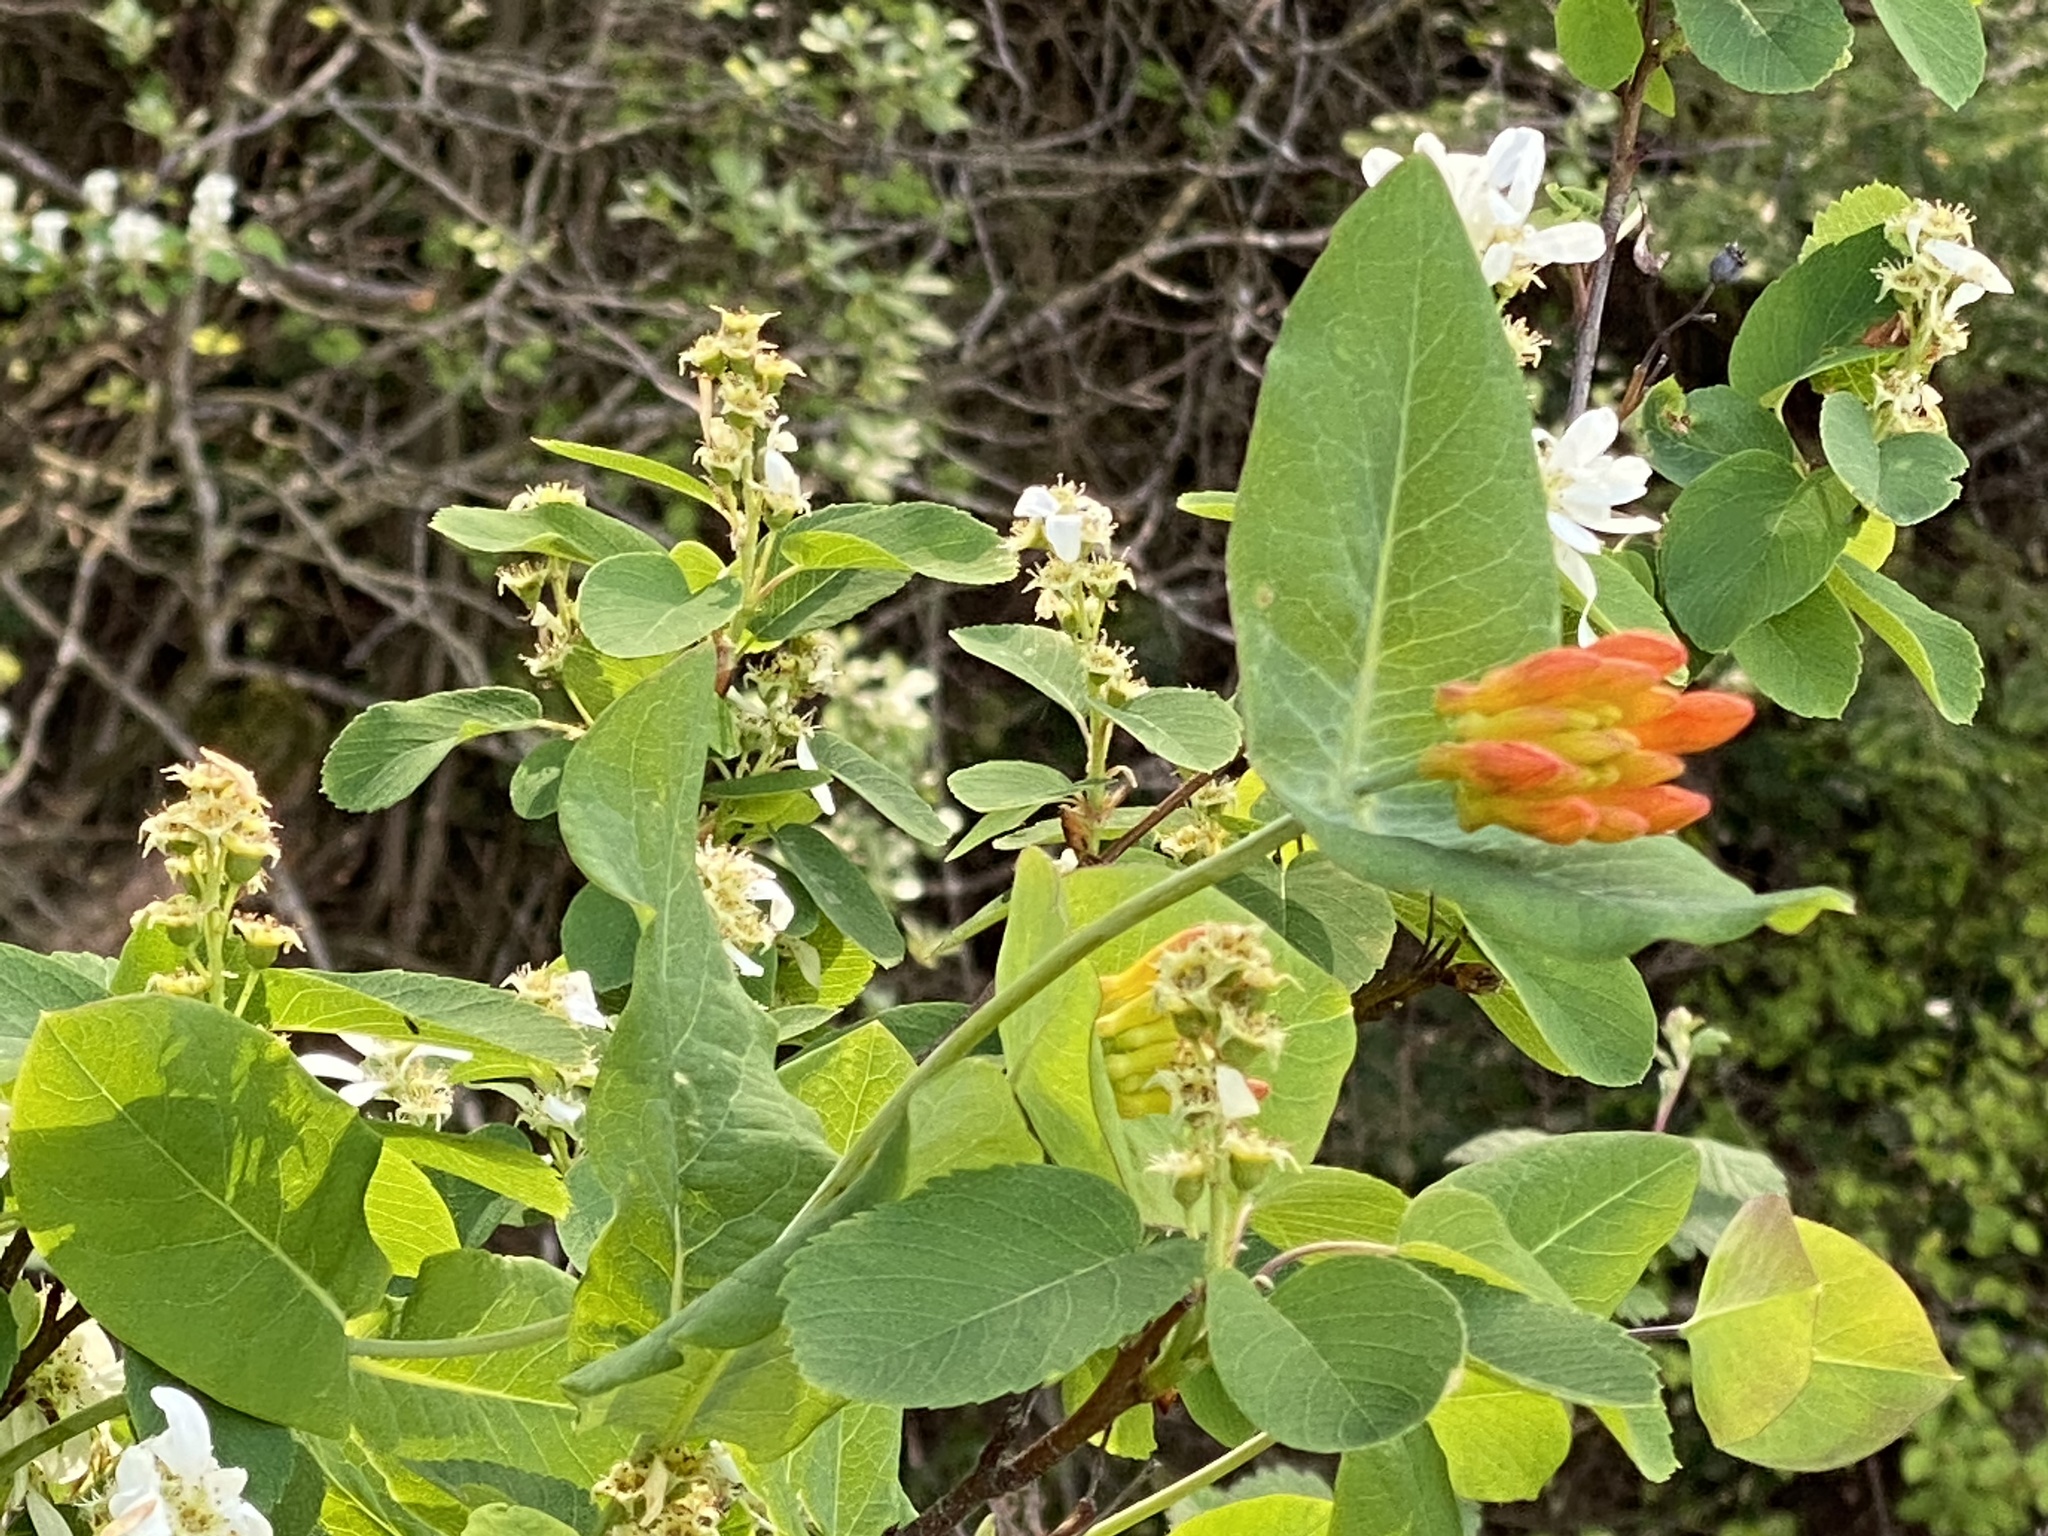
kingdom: Plantae
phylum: Tracheophyta
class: Magnoliopsida
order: Dipsacales
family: Caprifoliaceae
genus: Lonicera
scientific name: Lonicera ciliosa
